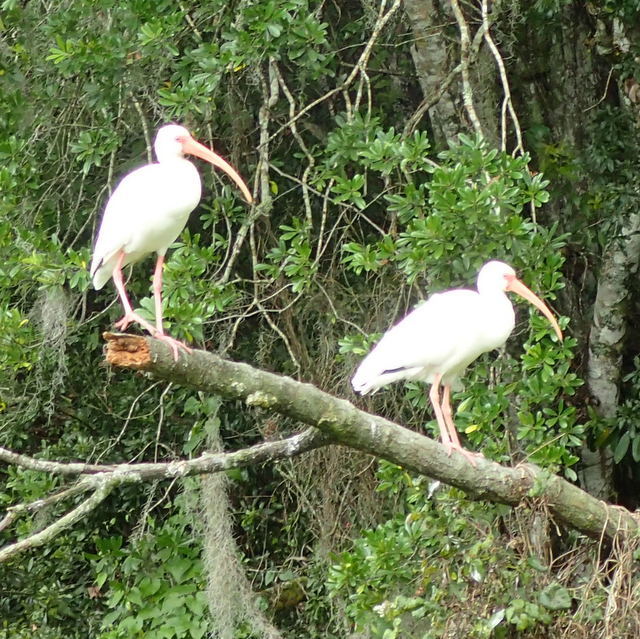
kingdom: Animalia
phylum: Chordata
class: Aves
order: Pelecaniformes
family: Threskiornithidae
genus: Eudocimus
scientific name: Eudocimus albus
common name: White ibis
